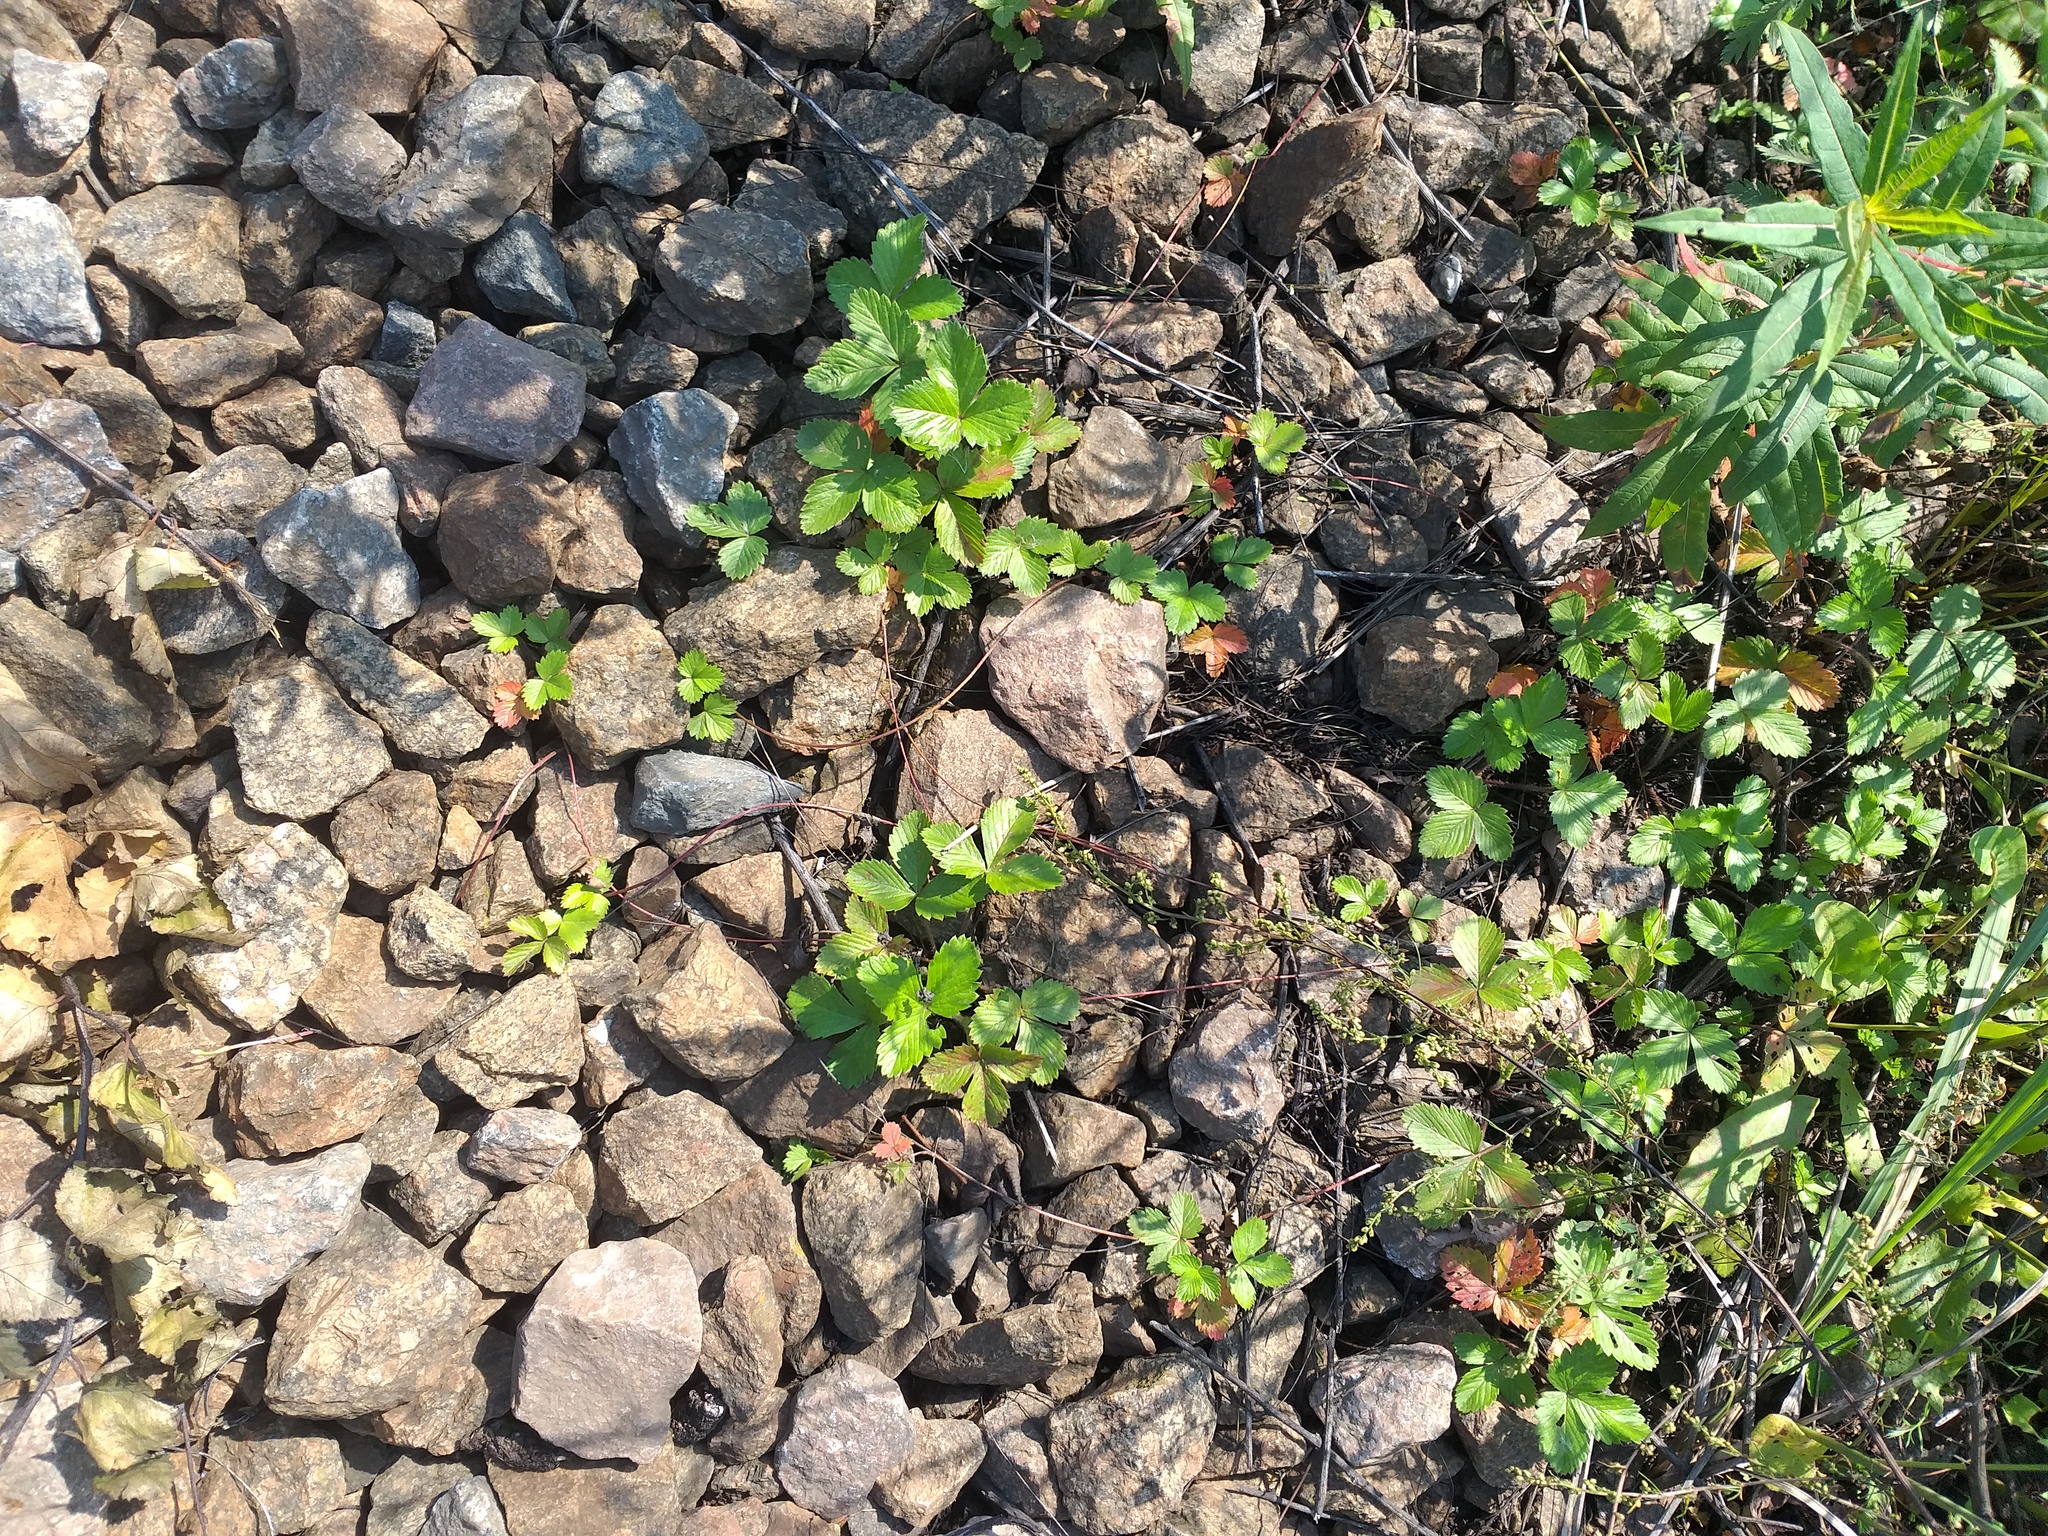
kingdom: Plantae
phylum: Tracheophyta
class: Magnoliopsida
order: Rosales
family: Rosaceae
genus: Fragaria
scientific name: Fragaria vesca
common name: Wild strawberry
